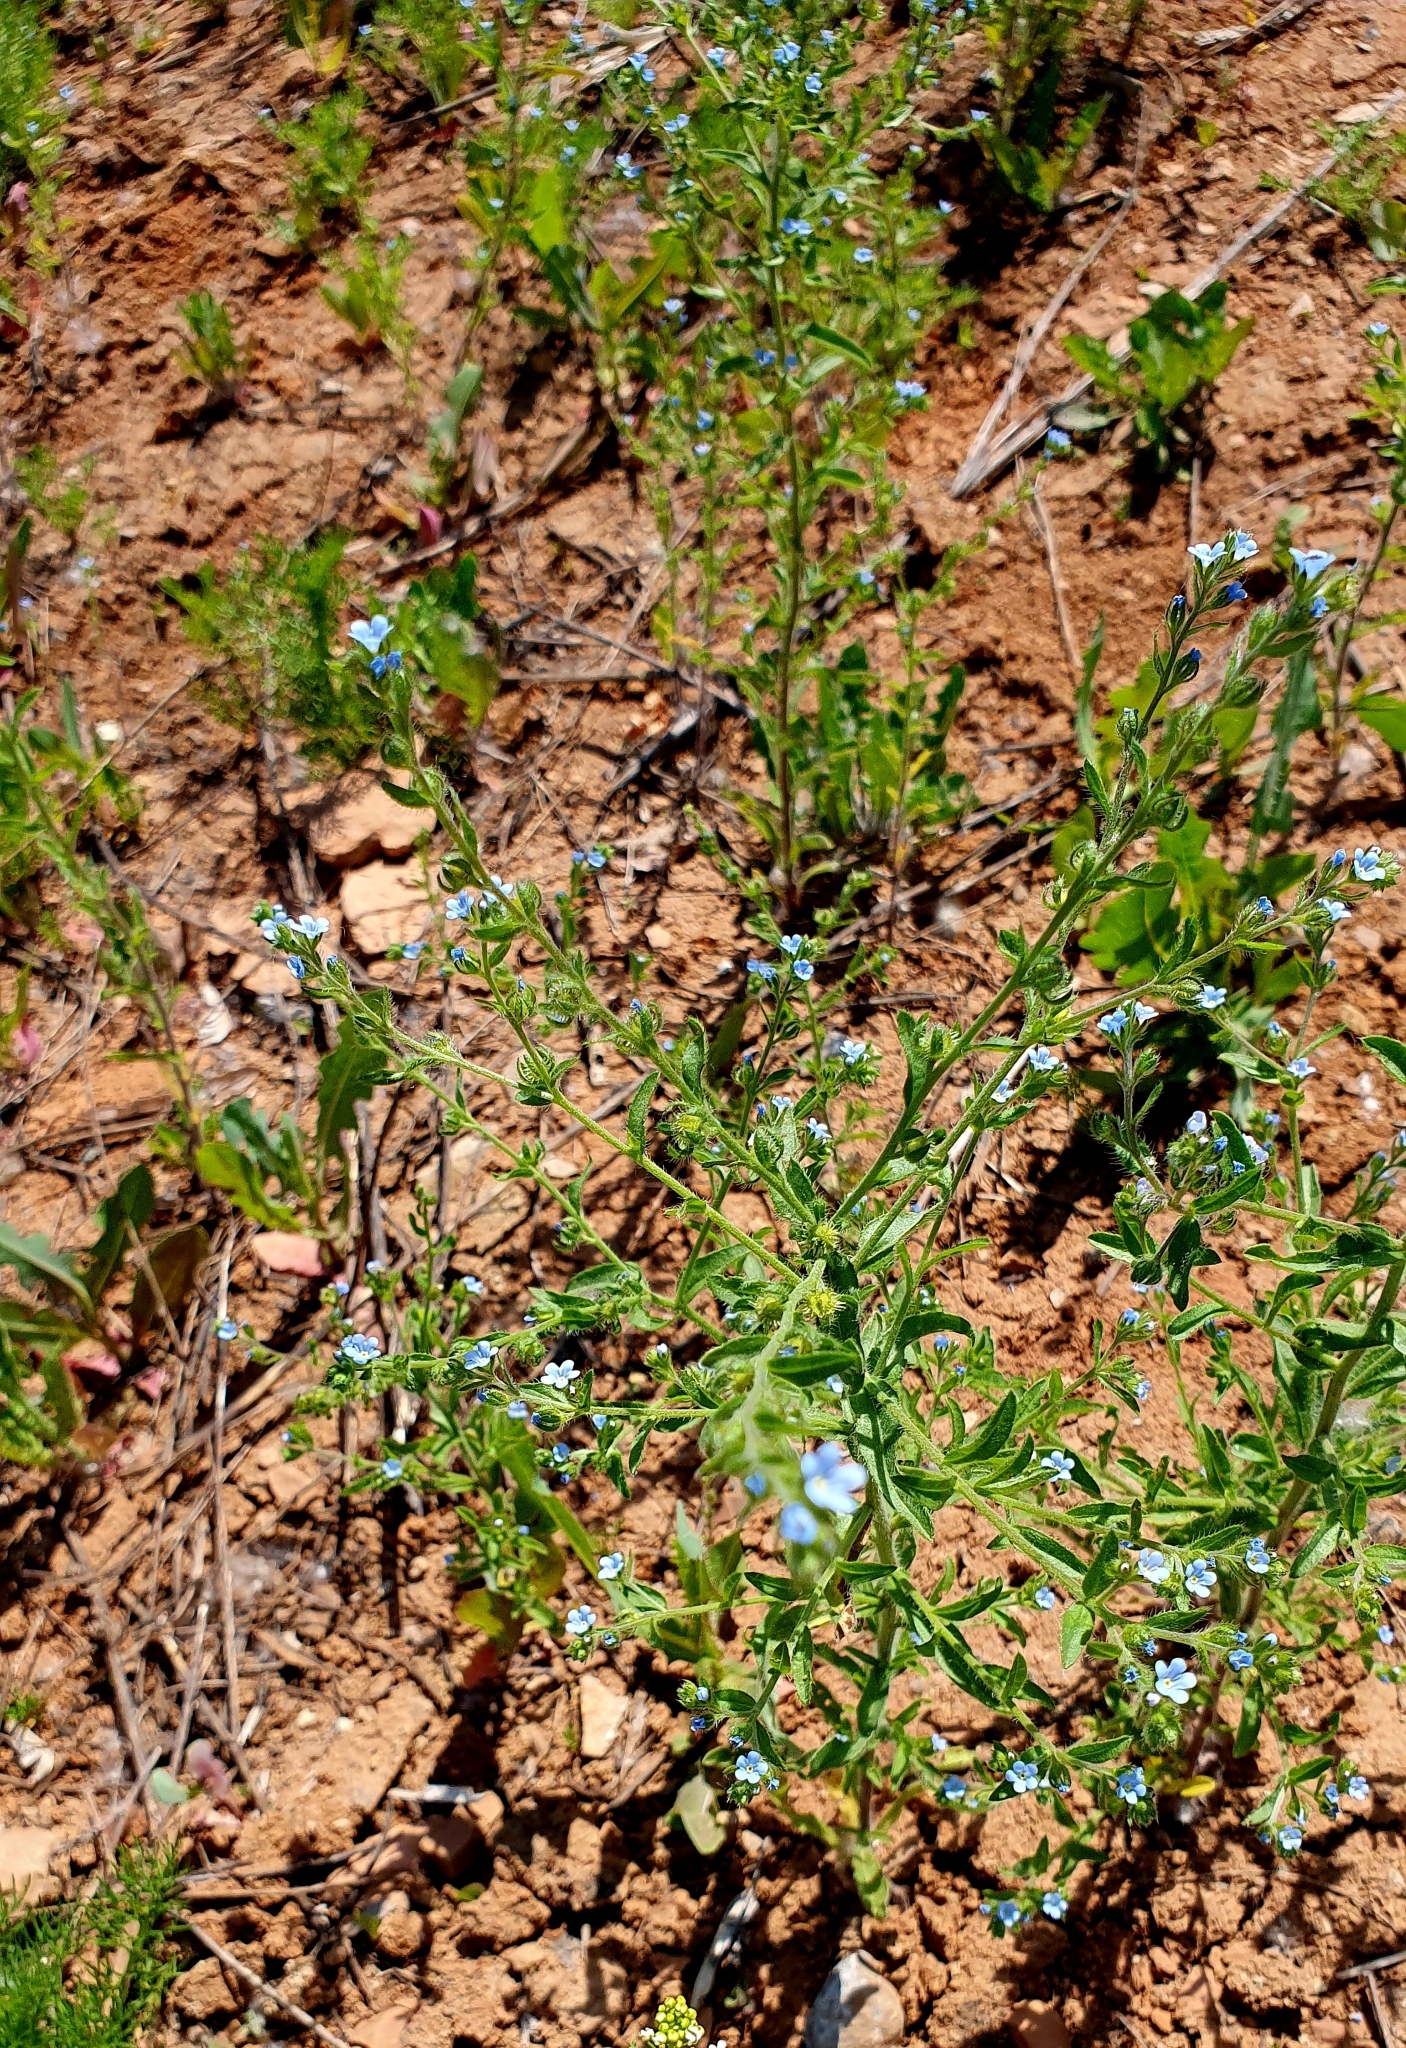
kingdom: Plantae
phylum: Tracheophyta
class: Magnoliopsida
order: Boraginales
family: Boraginaceae
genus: Lappula
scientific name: Lappula squarrosa
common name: European stickseed
